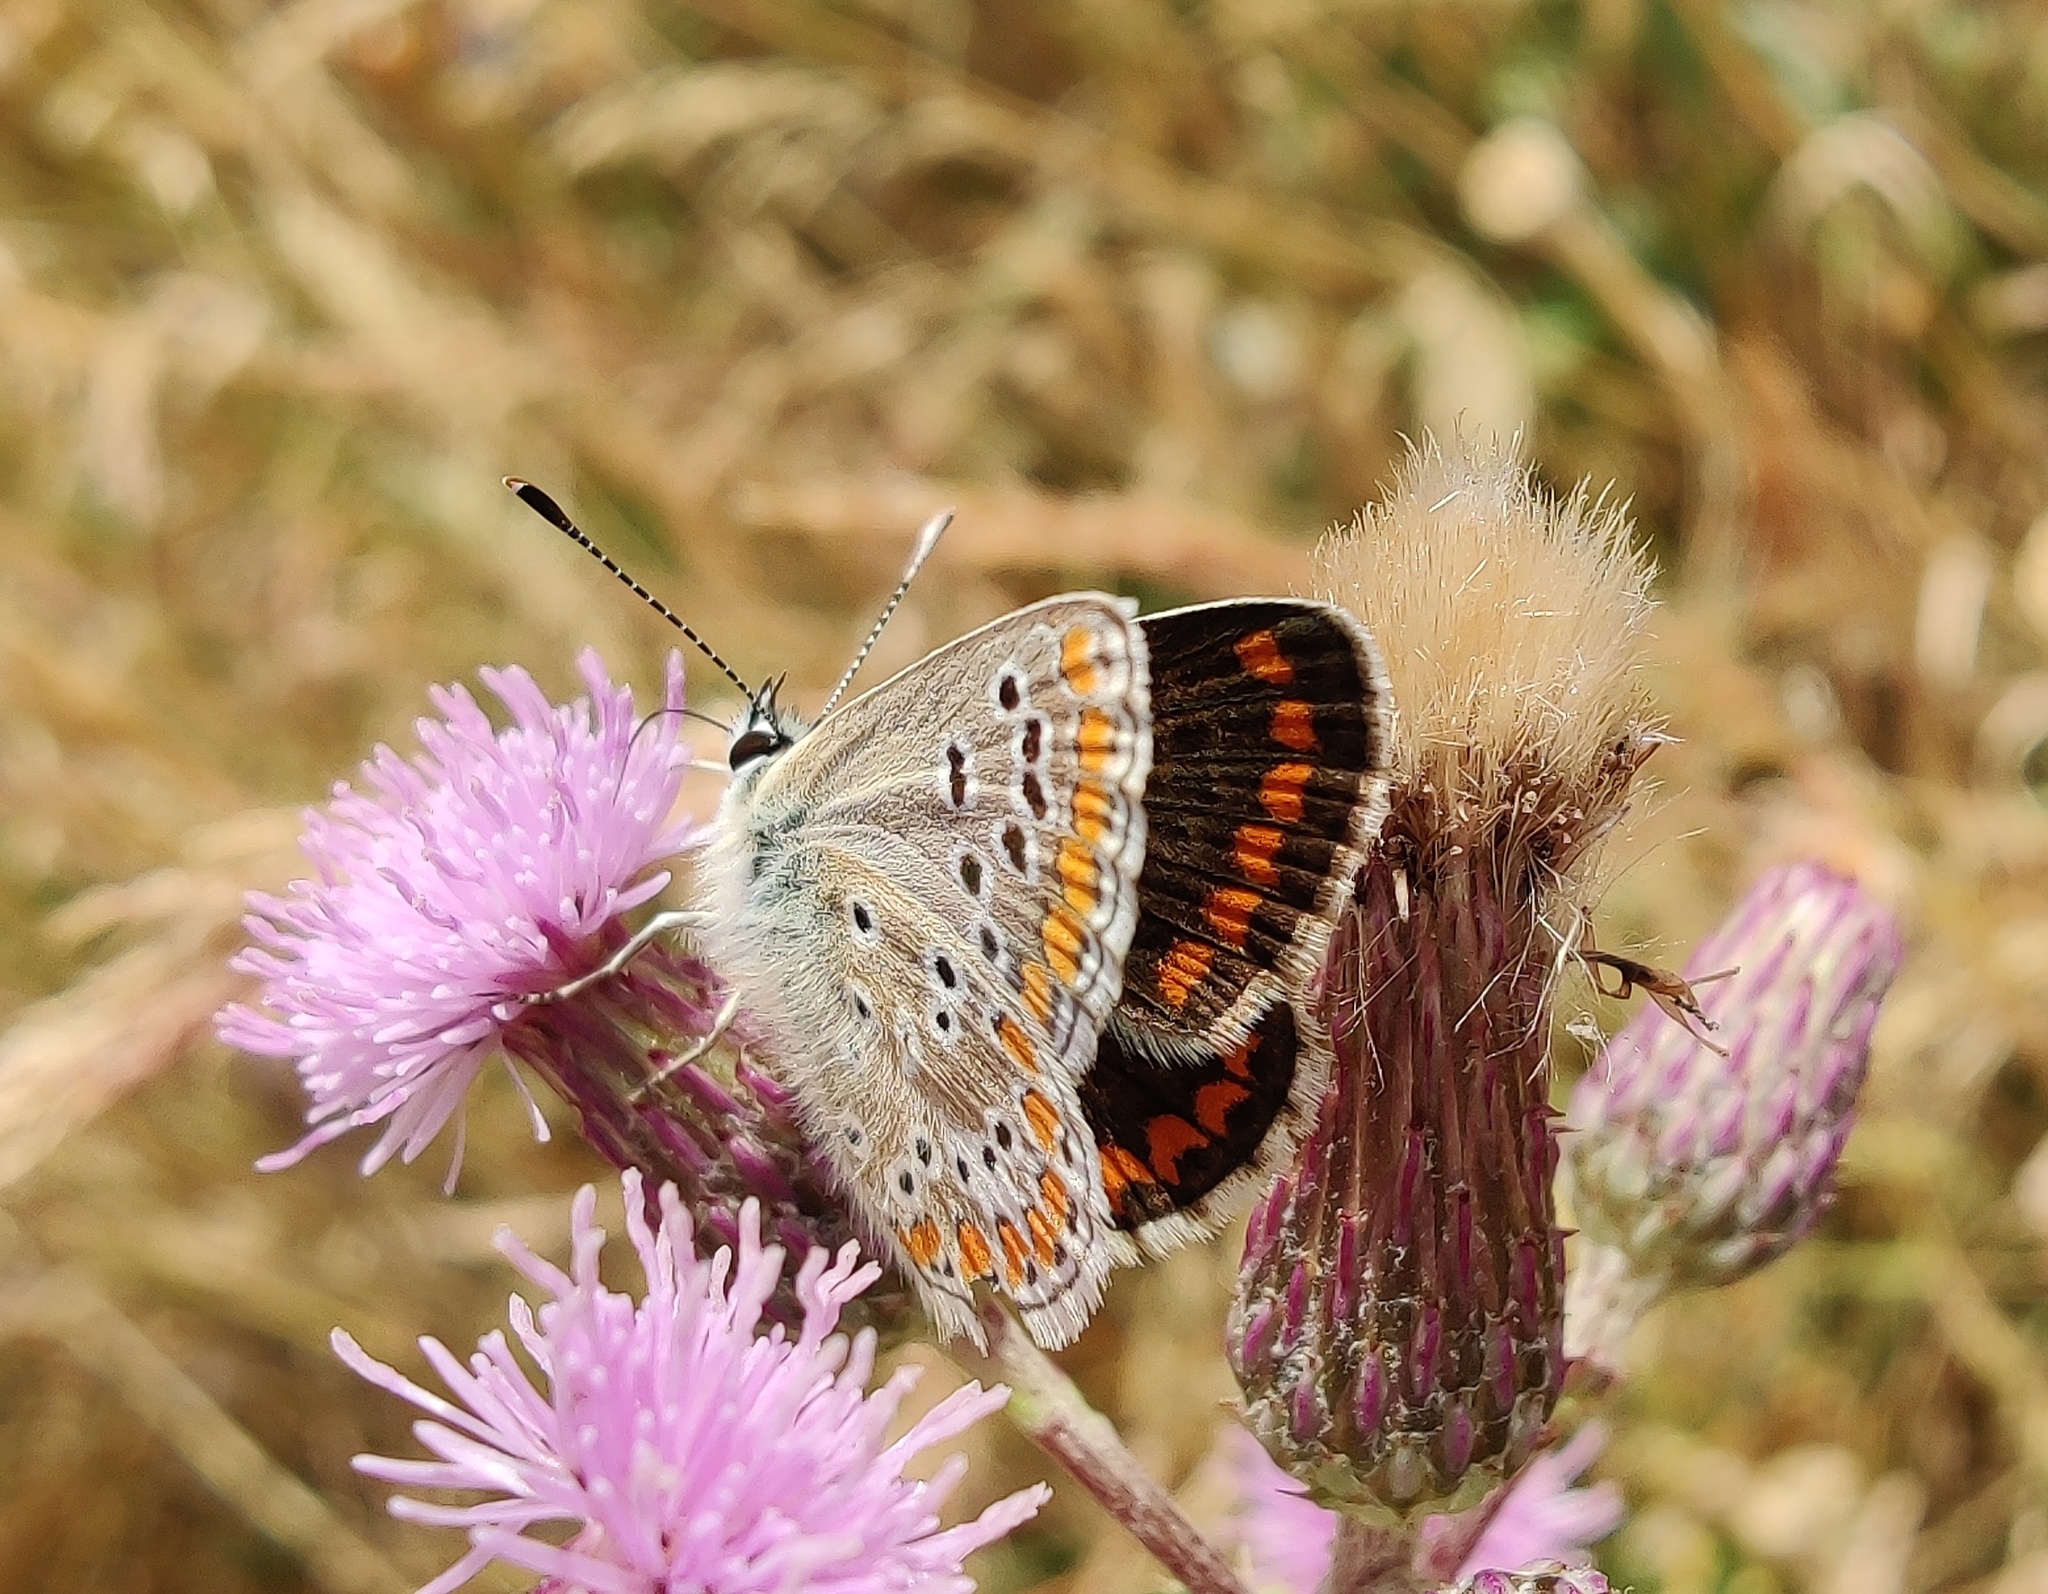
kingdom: Animalia
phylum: Arthropoda
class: Insecta
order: Lepidoptera
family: Lycaenidae
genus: Aricia
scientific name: Aricia agestis
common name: Brown argus
